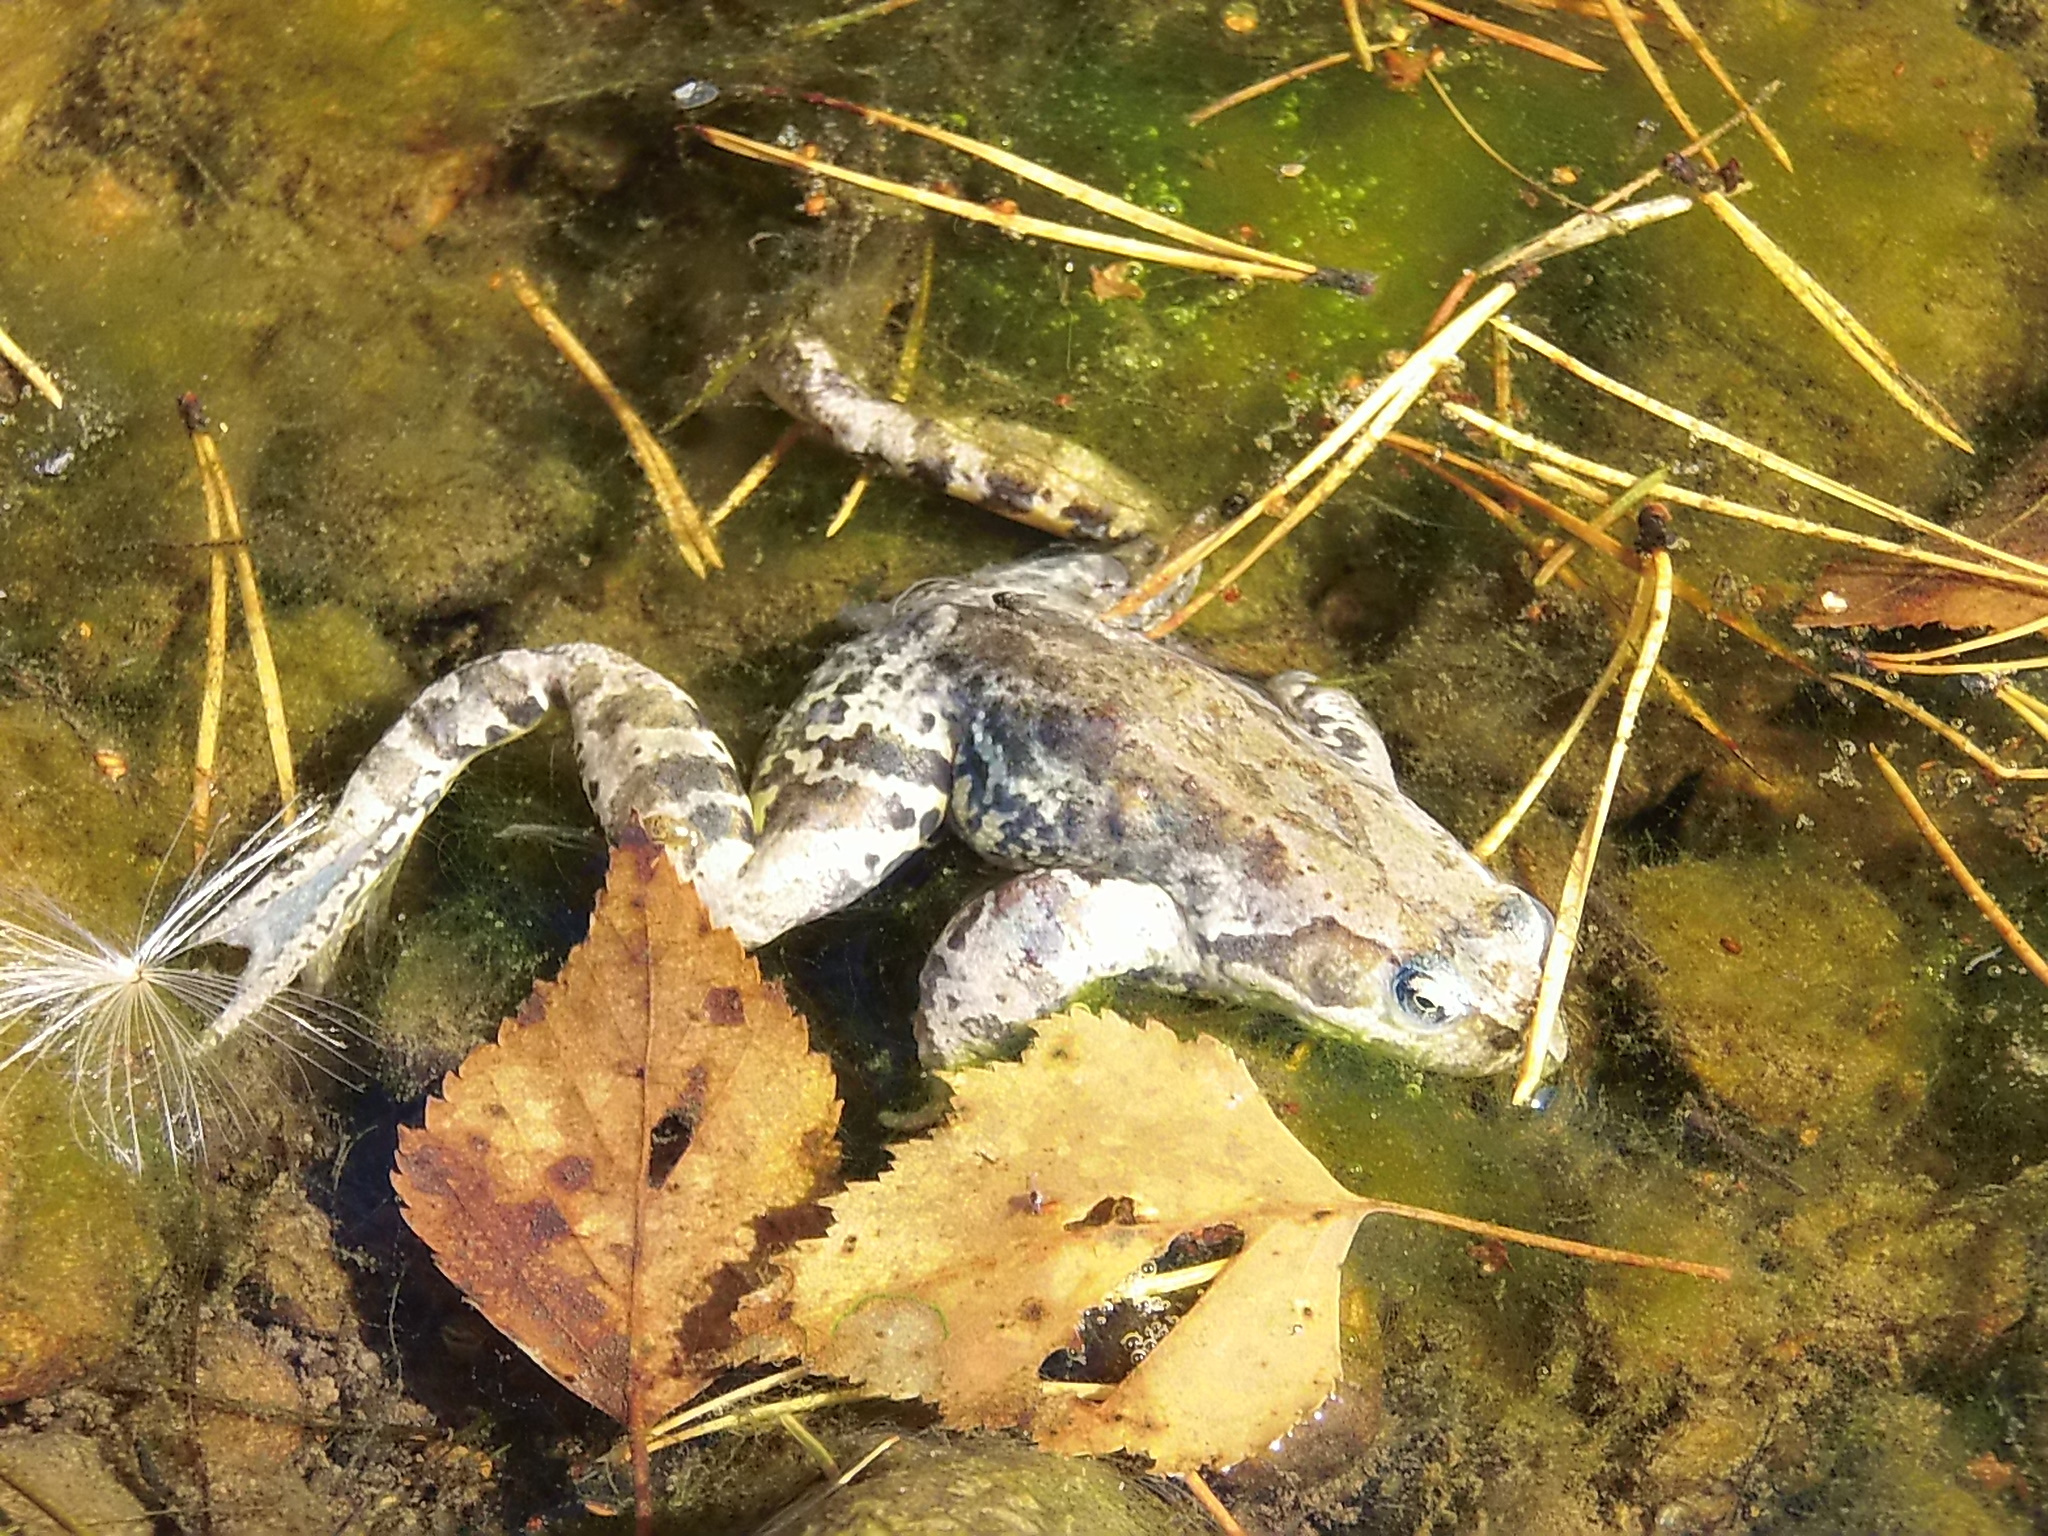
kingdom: Animalia
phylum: Chordata
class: Amphibia
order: Anura
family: Ranidae
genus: Rana
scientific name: Rana temporaria
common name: Common frog
